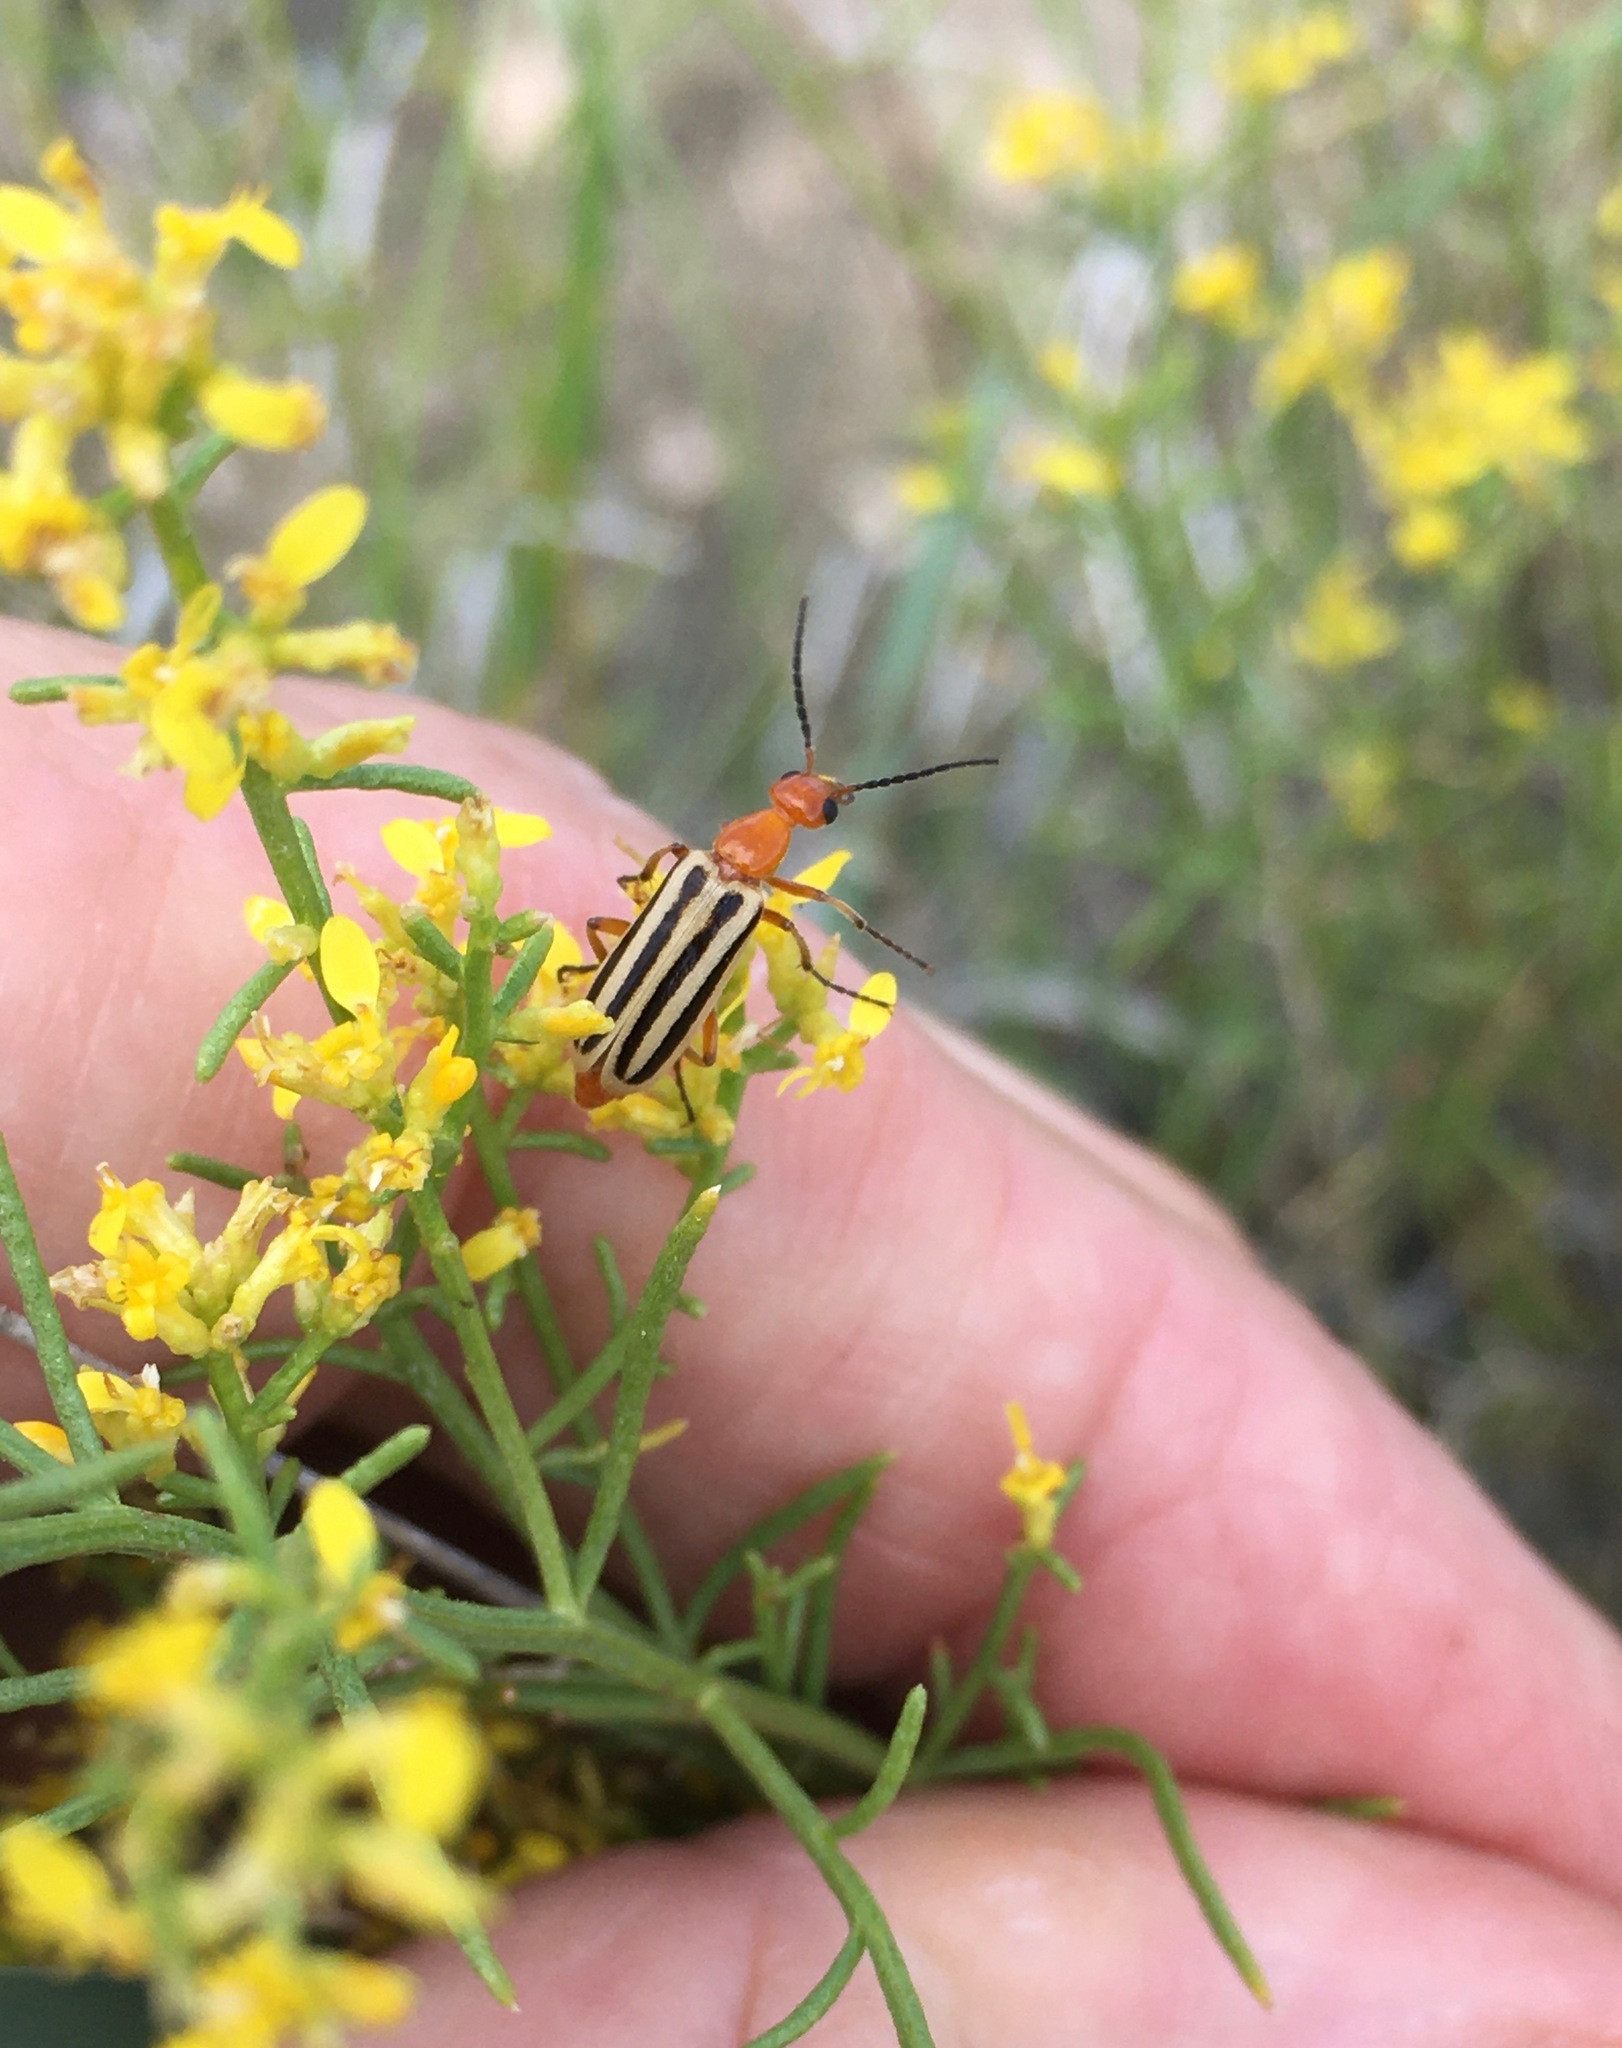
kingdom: Animalia
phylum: Arthropoda
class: Insecta
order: Coleoptera
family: Meloidae
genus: Pyrota
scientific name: Pyrota bilineata
